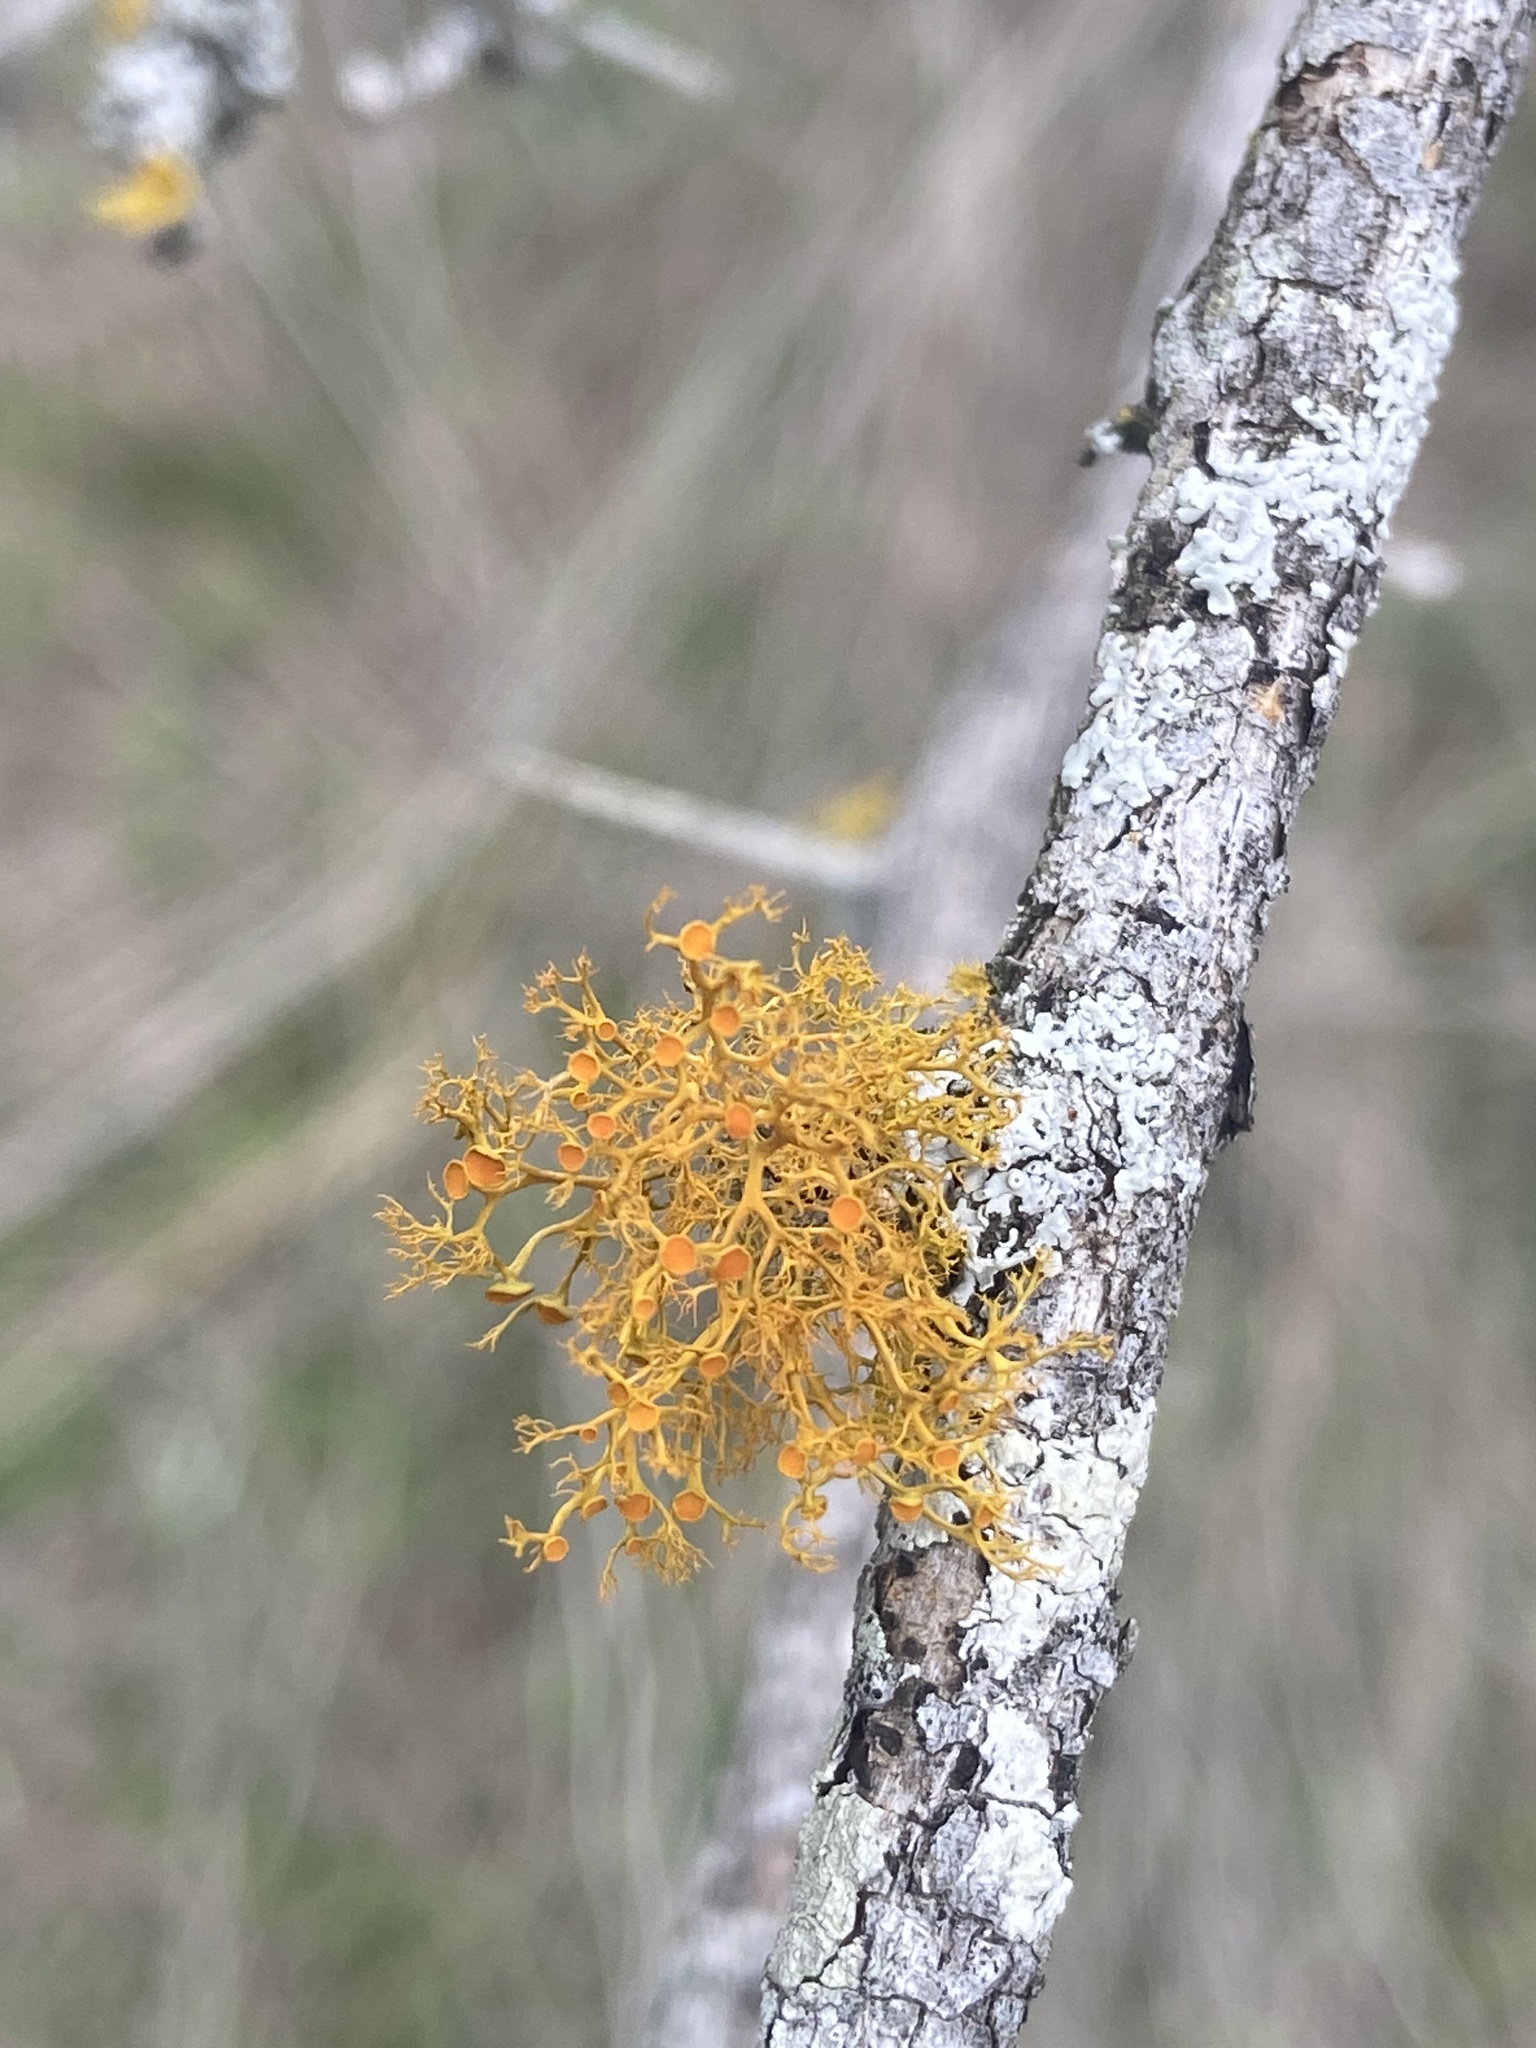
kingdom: Fungi
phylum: Ascomycota
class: Lecanoromycetes
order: Teloschistales
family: Teloschistaceae
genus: Teloschistes
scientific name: Teloschistes exilis
